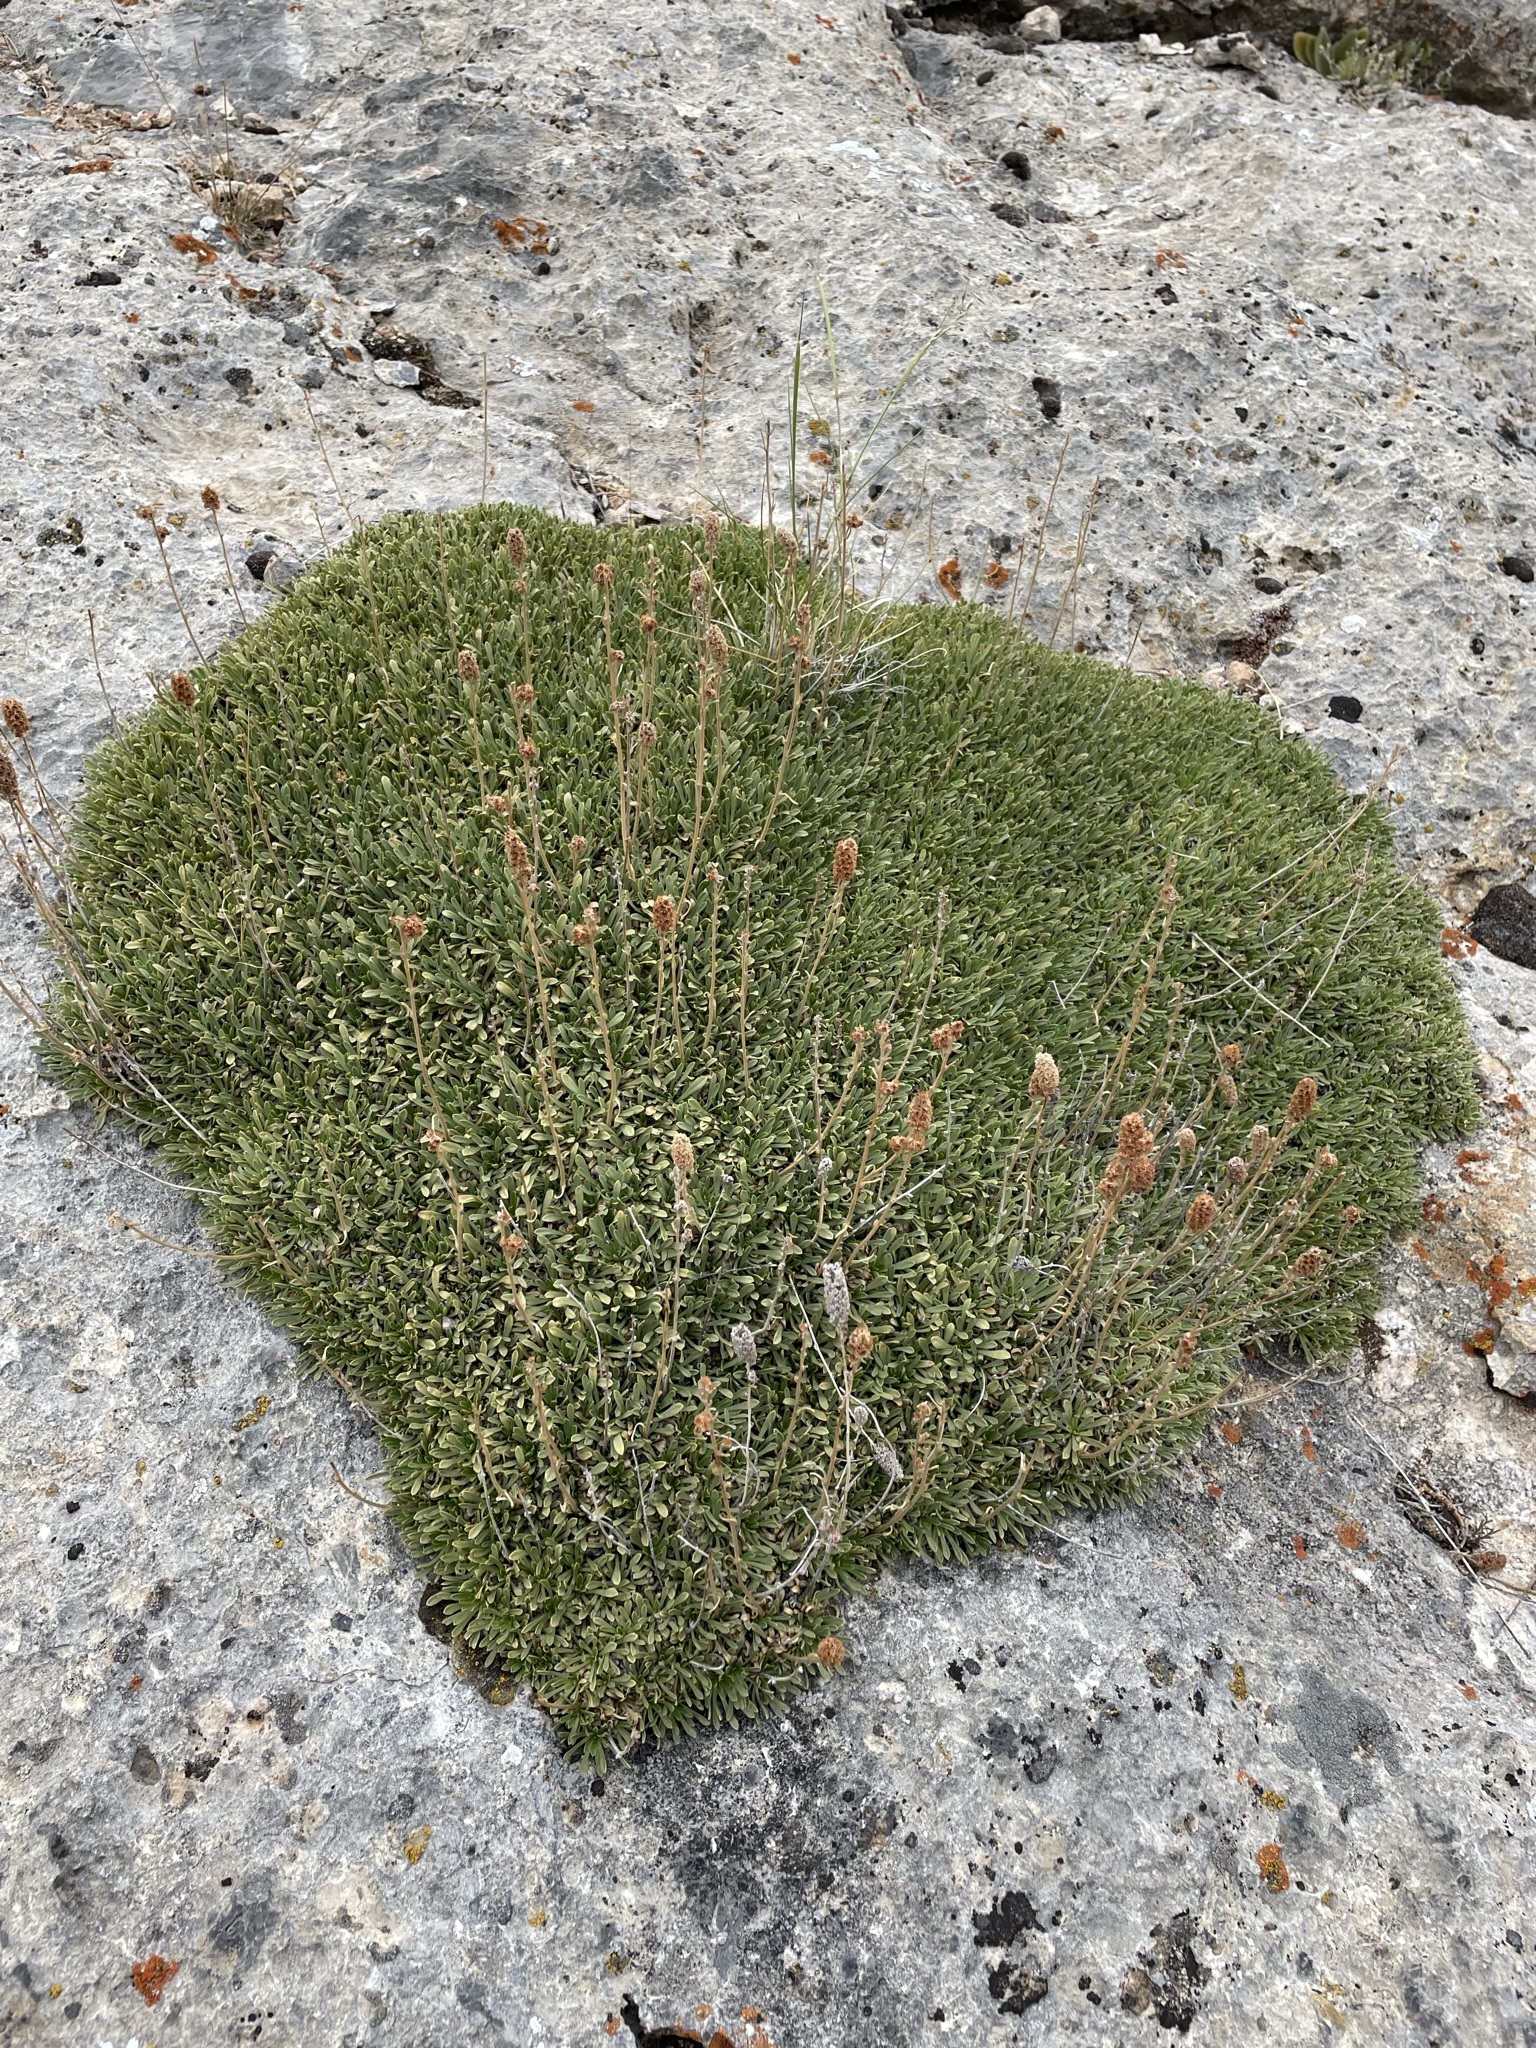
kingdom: Plantae
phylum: Tracheophyta
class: Magnoliopsida
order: Rosales
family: Rosaceae
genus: Petrophytum
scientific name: Petrophytum caespitosum
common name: Mat rockspirea
